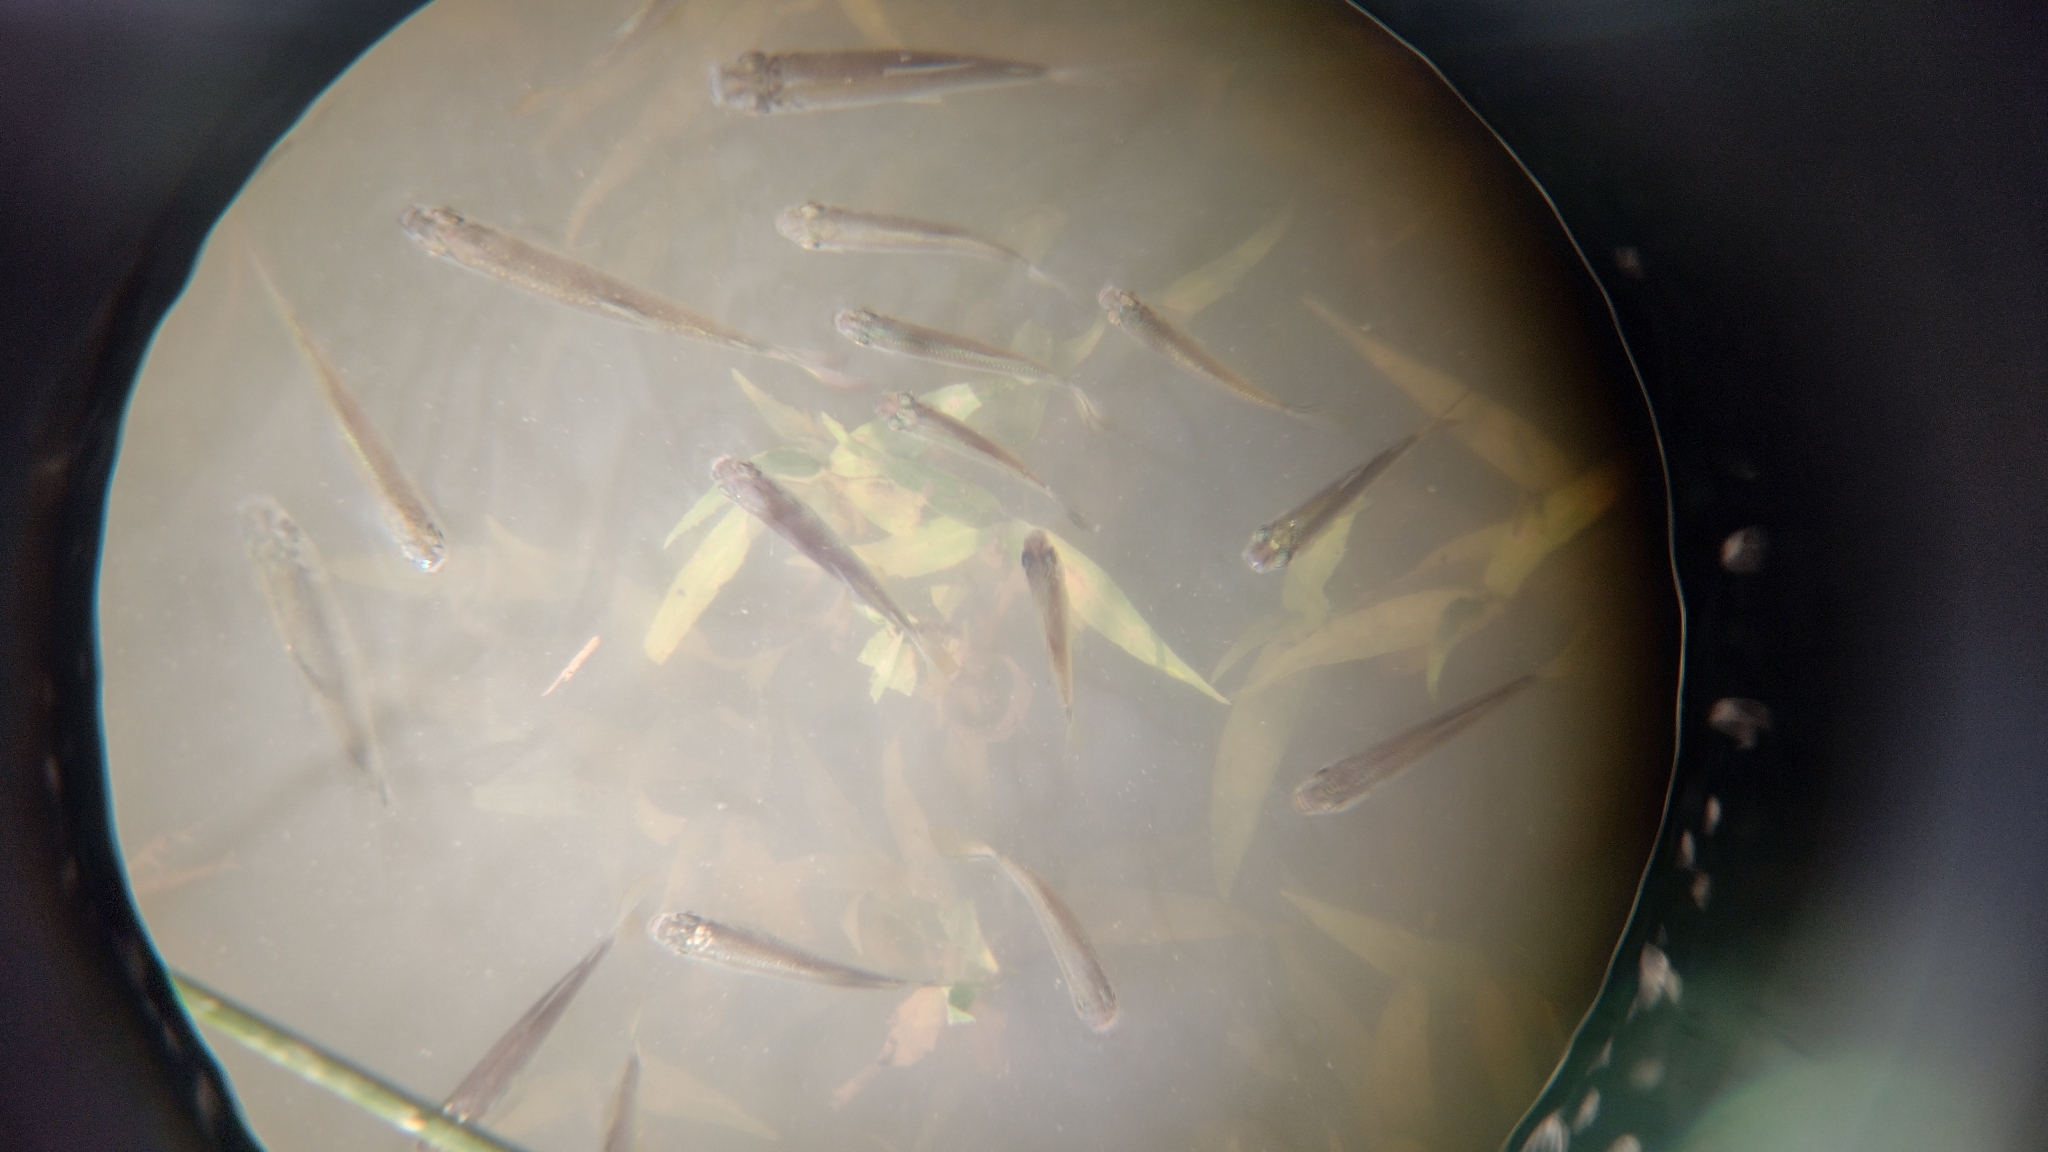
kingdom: Animalia
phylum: Chordata
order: Characiformes
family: Prochilodontidae
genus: Prochilodus
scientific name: Prochilodus lineatus
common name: Curimbata
